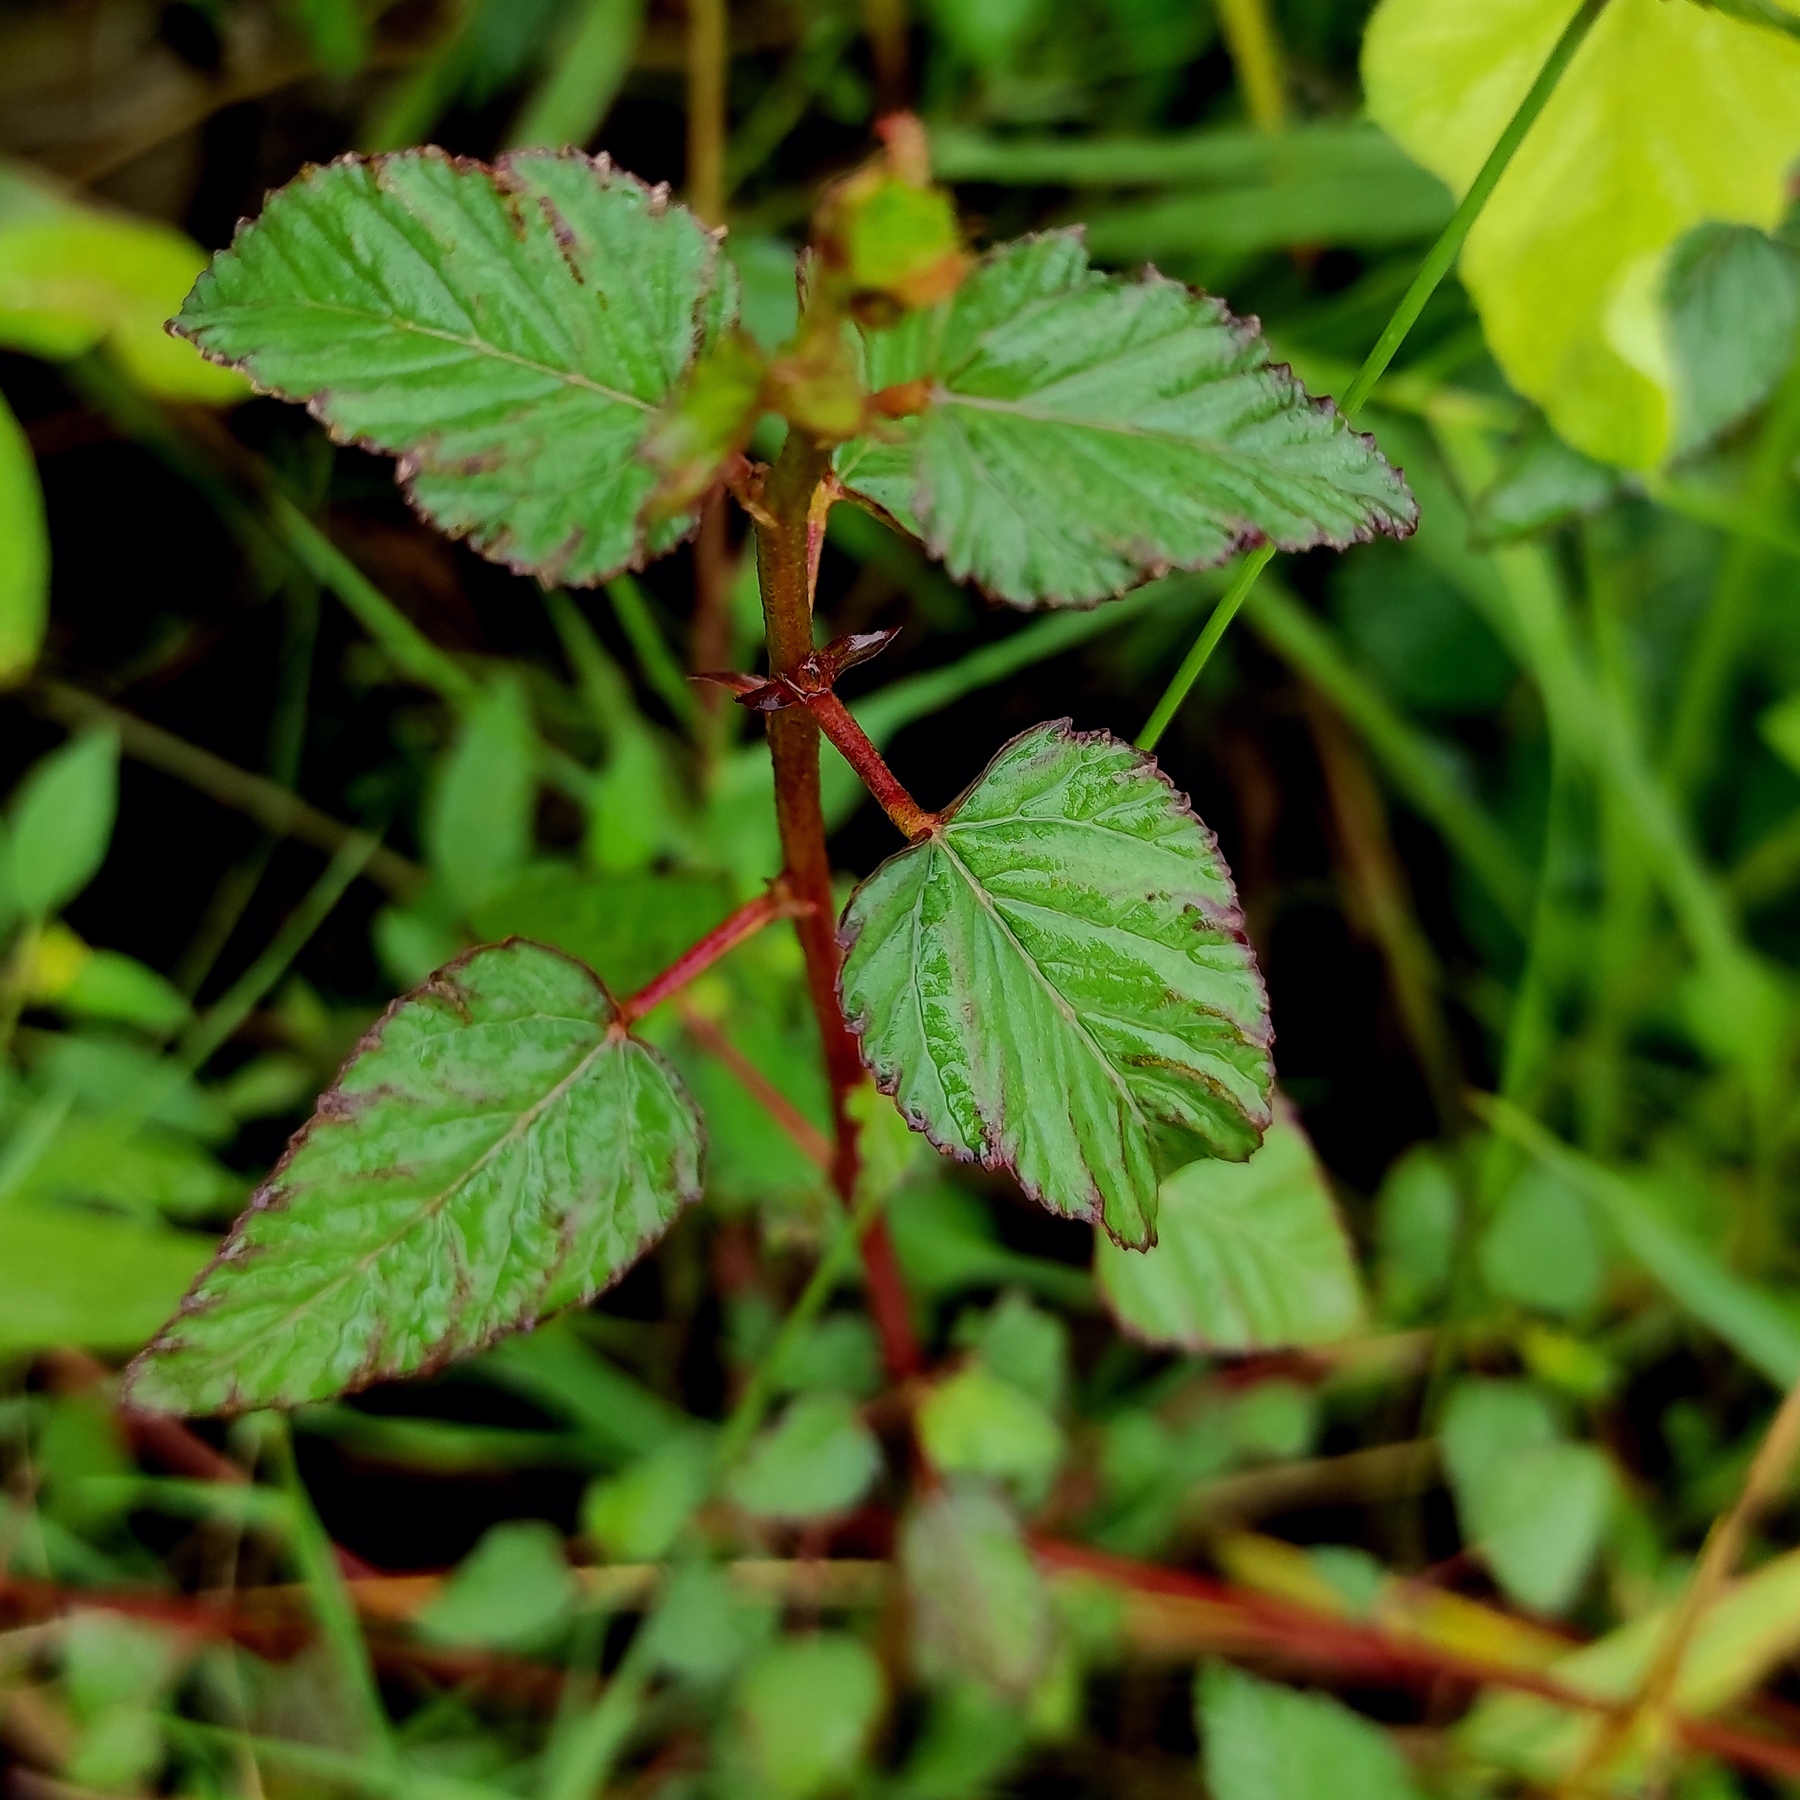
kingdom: Plantae
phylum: Tracheophyta
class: Magnoliopsida
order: Malvales
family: Malvaceae
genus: Melochia
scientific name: Melochia corchorifolia
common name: Chocolateweed
